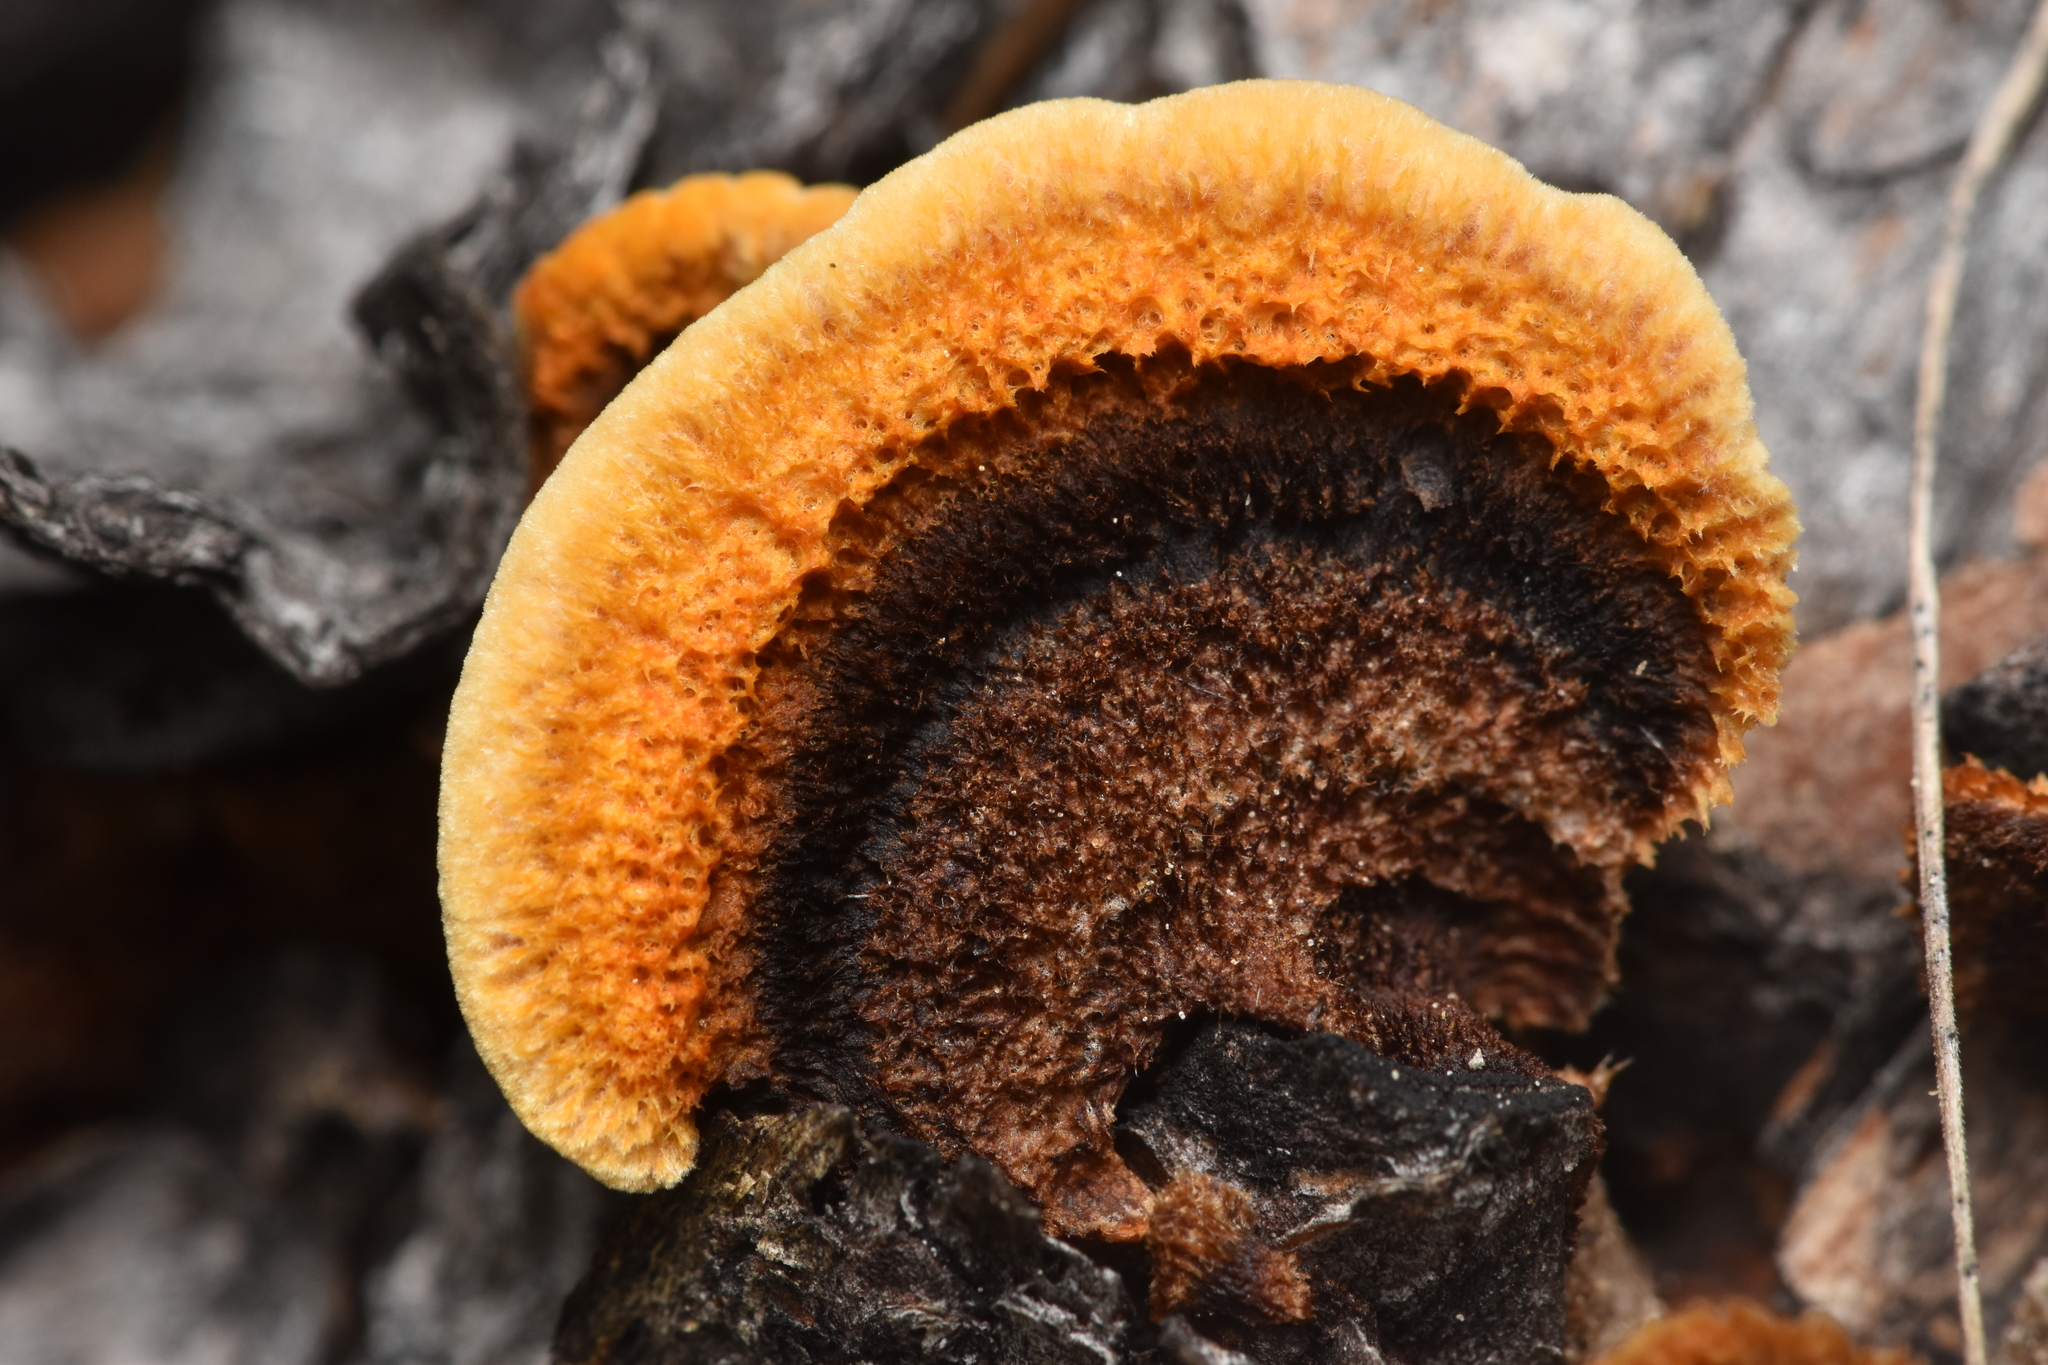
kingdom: Fungi
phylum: Basidiomycota
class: Agaricomycetes
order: Gloeophyllales
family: Gloeophyllaceae
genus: Gloeophyllum
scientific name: Gloeophyllum sepiarium
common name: Conifer mazegill
